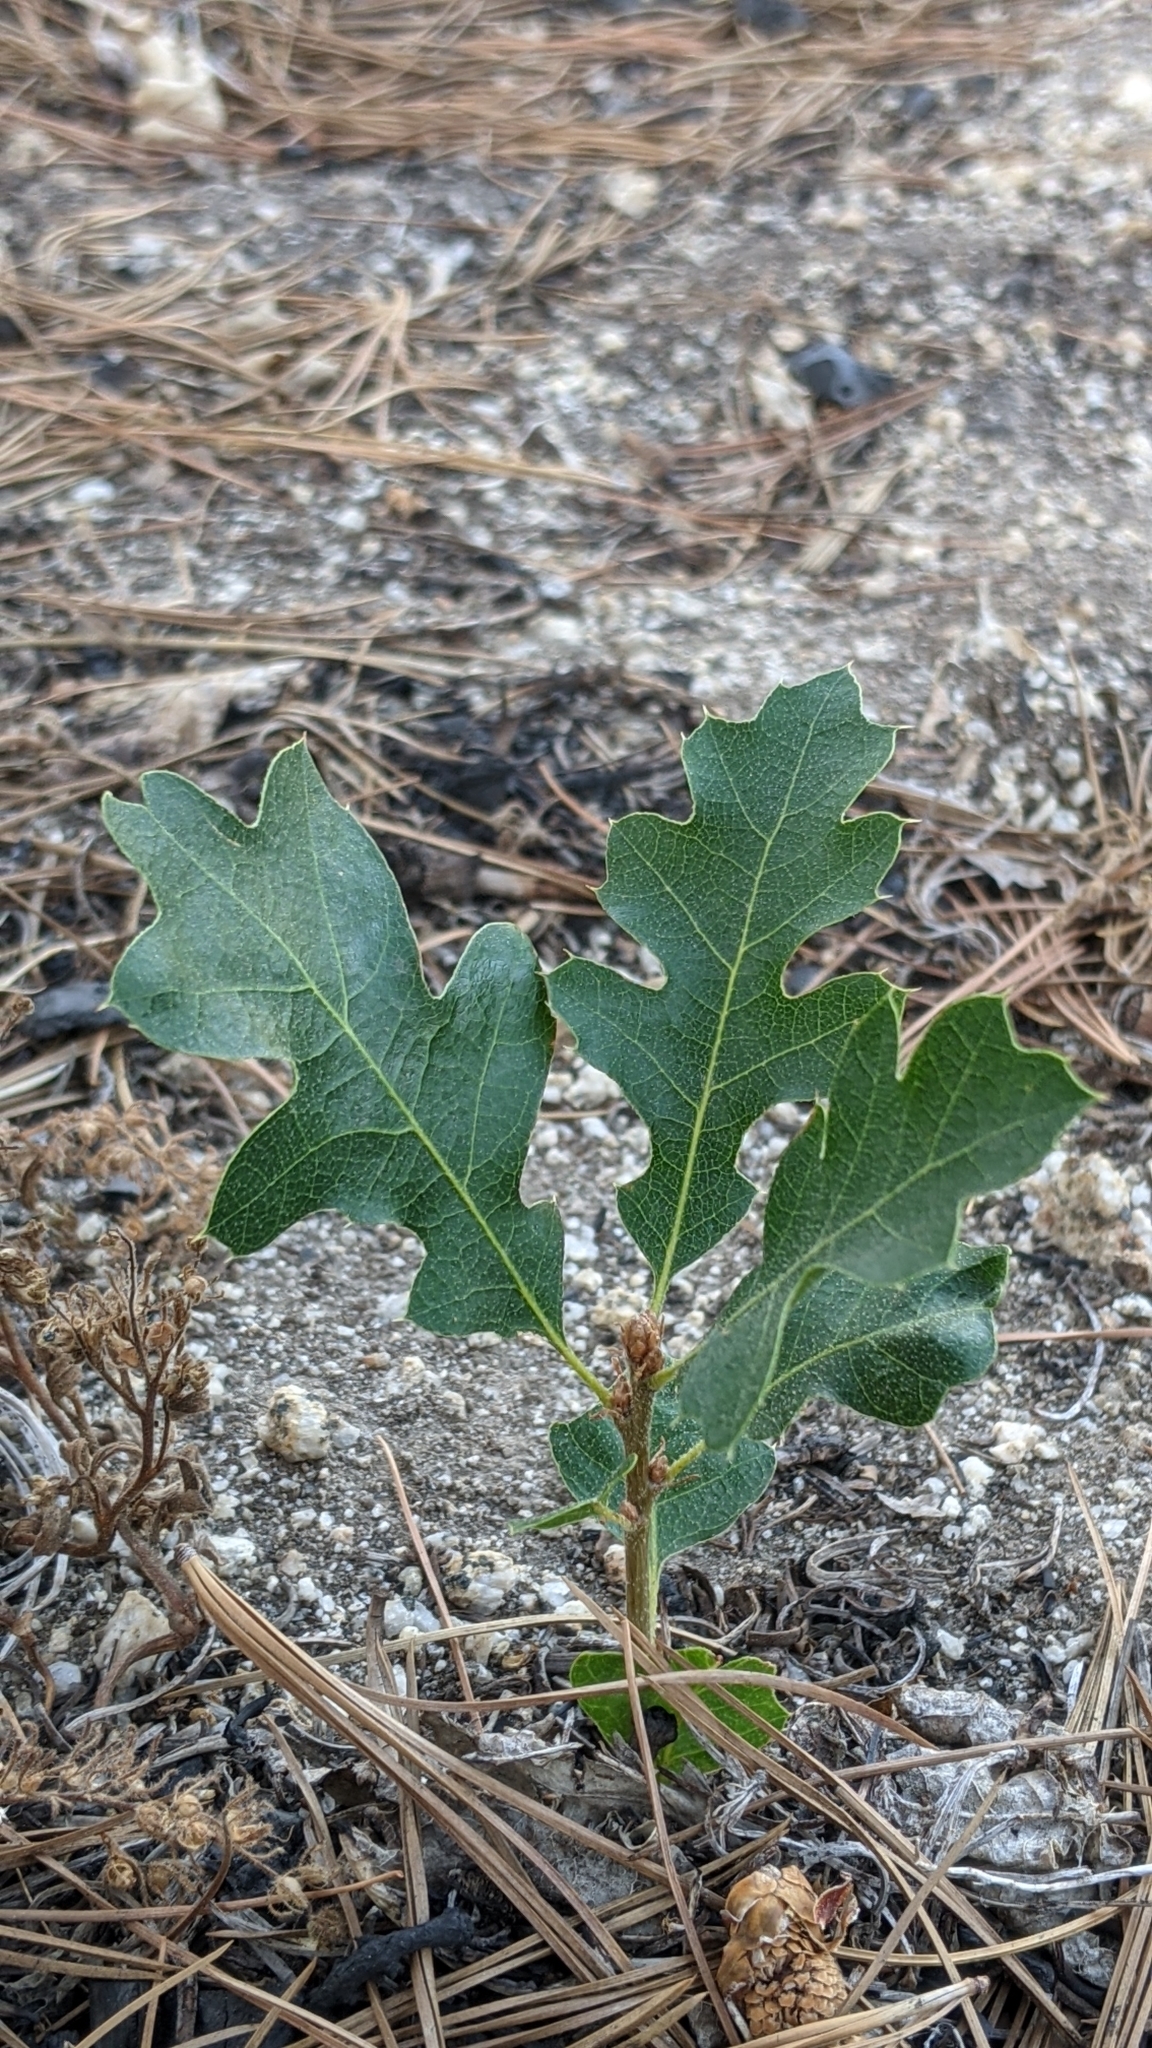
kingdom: Plantae
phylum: Tracheophyta
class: Magnoliopsida
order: Fagales
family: Fagaceae
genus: Quercus
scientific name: Quercus kelloggii
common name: California black oak
